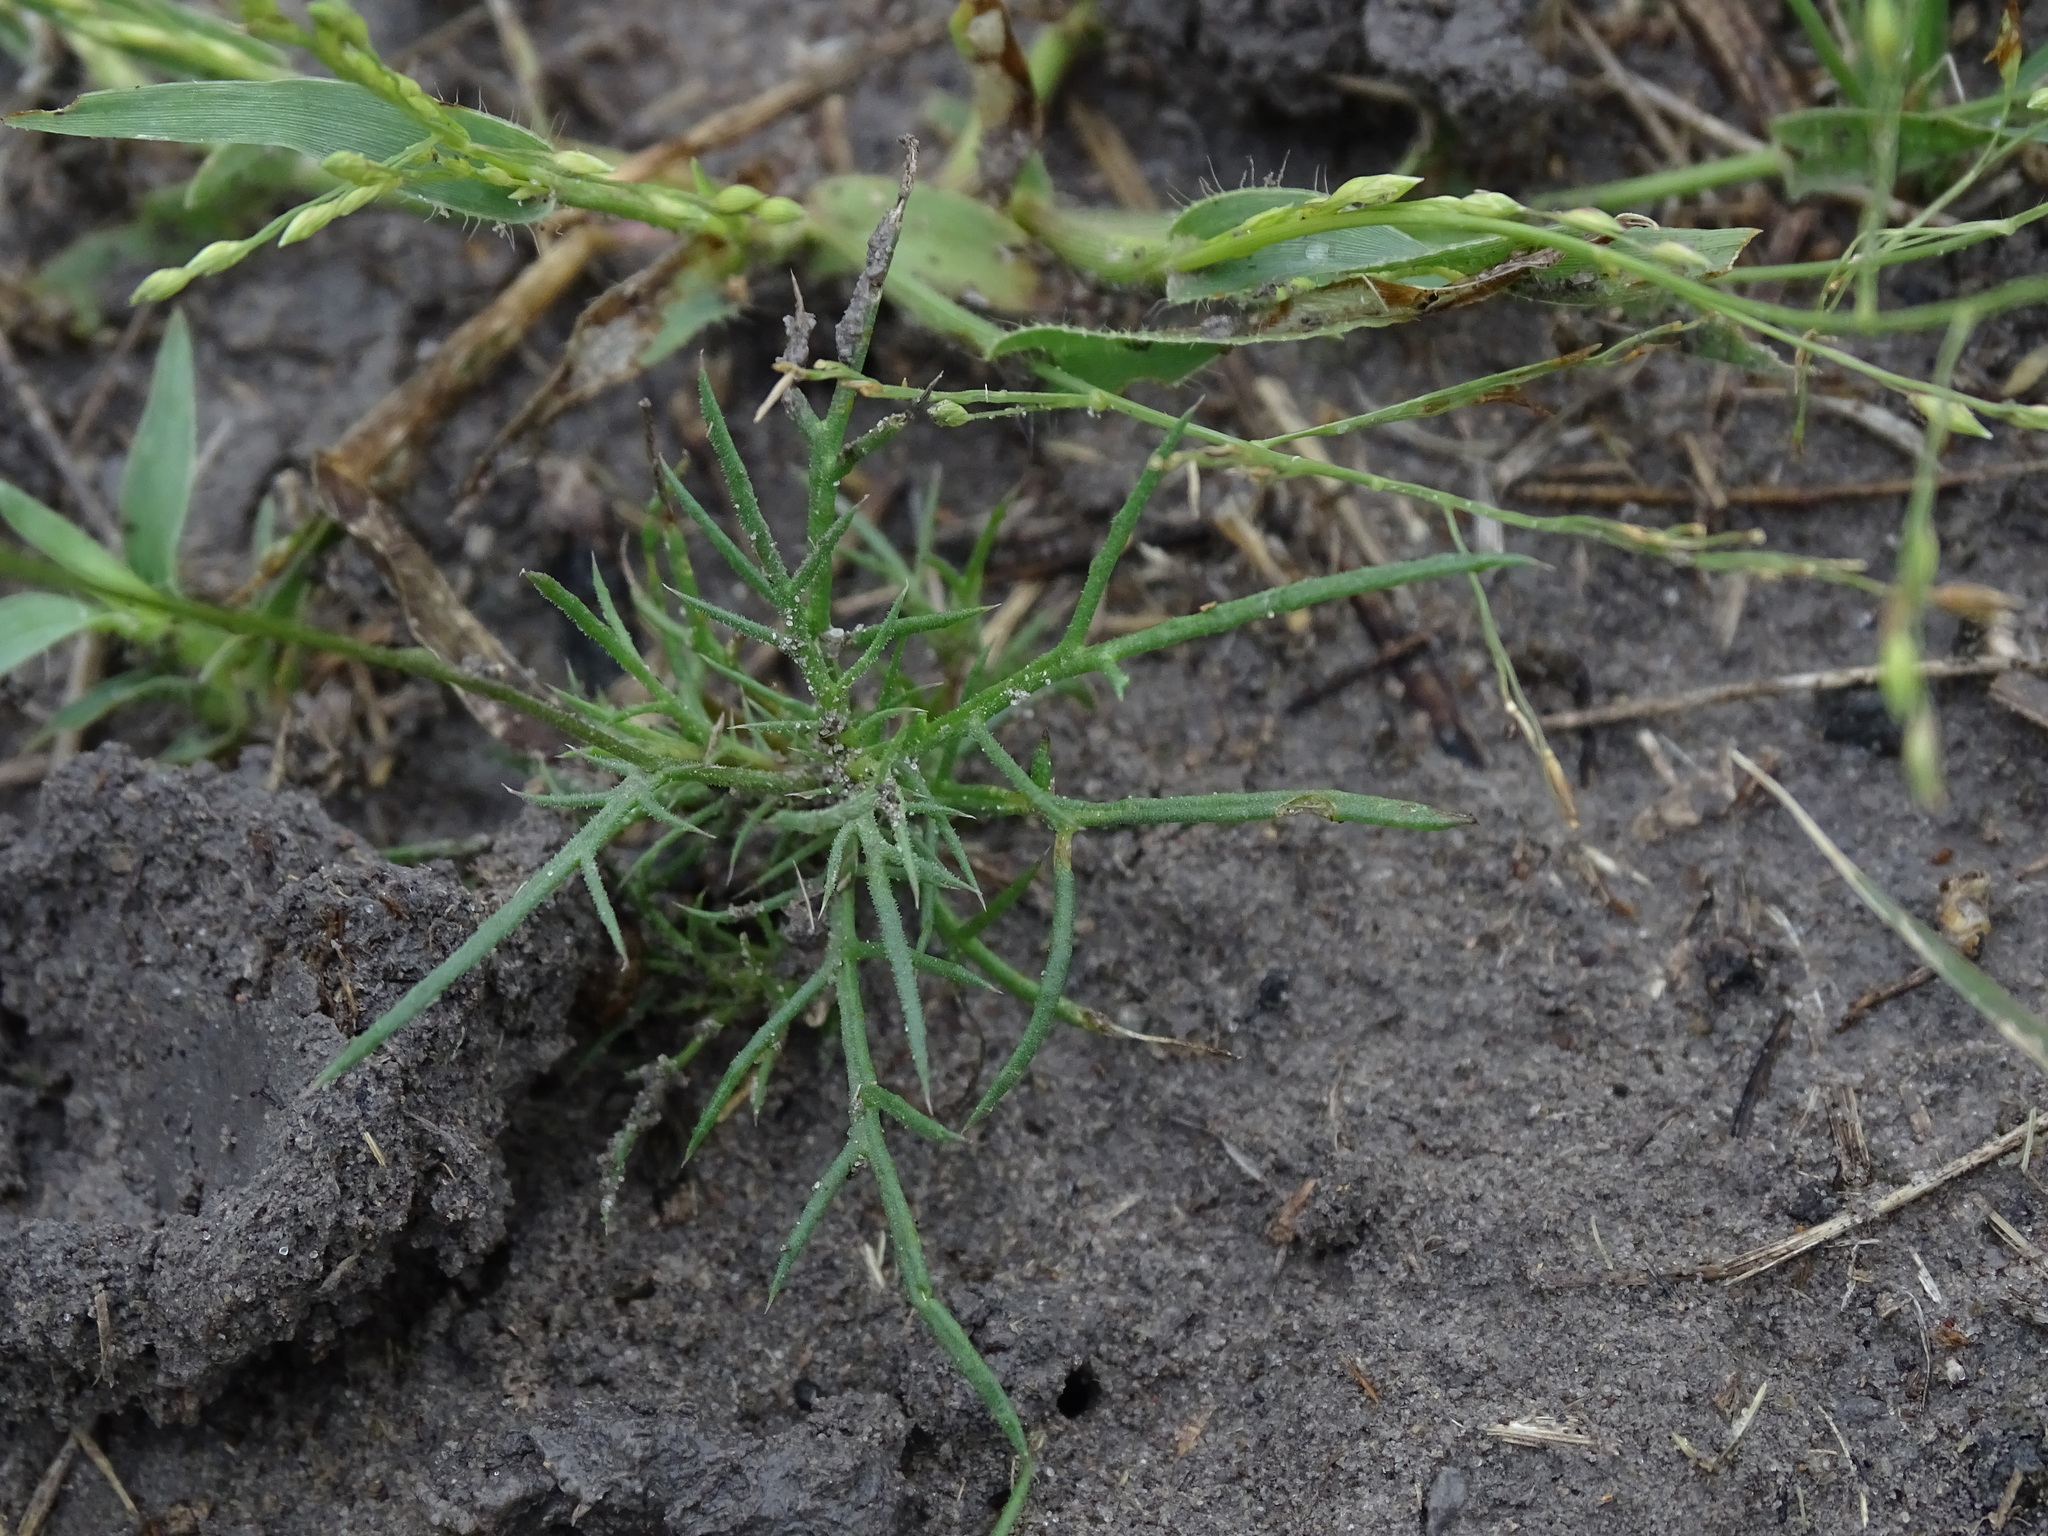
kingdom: Plantae
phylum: Tracheophyta
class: Magnoliopsida
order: Asterales
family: Asteraceae
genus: Thymophylla
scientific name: Thymophylla tenuiloba
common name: Dahlberg's daisy
